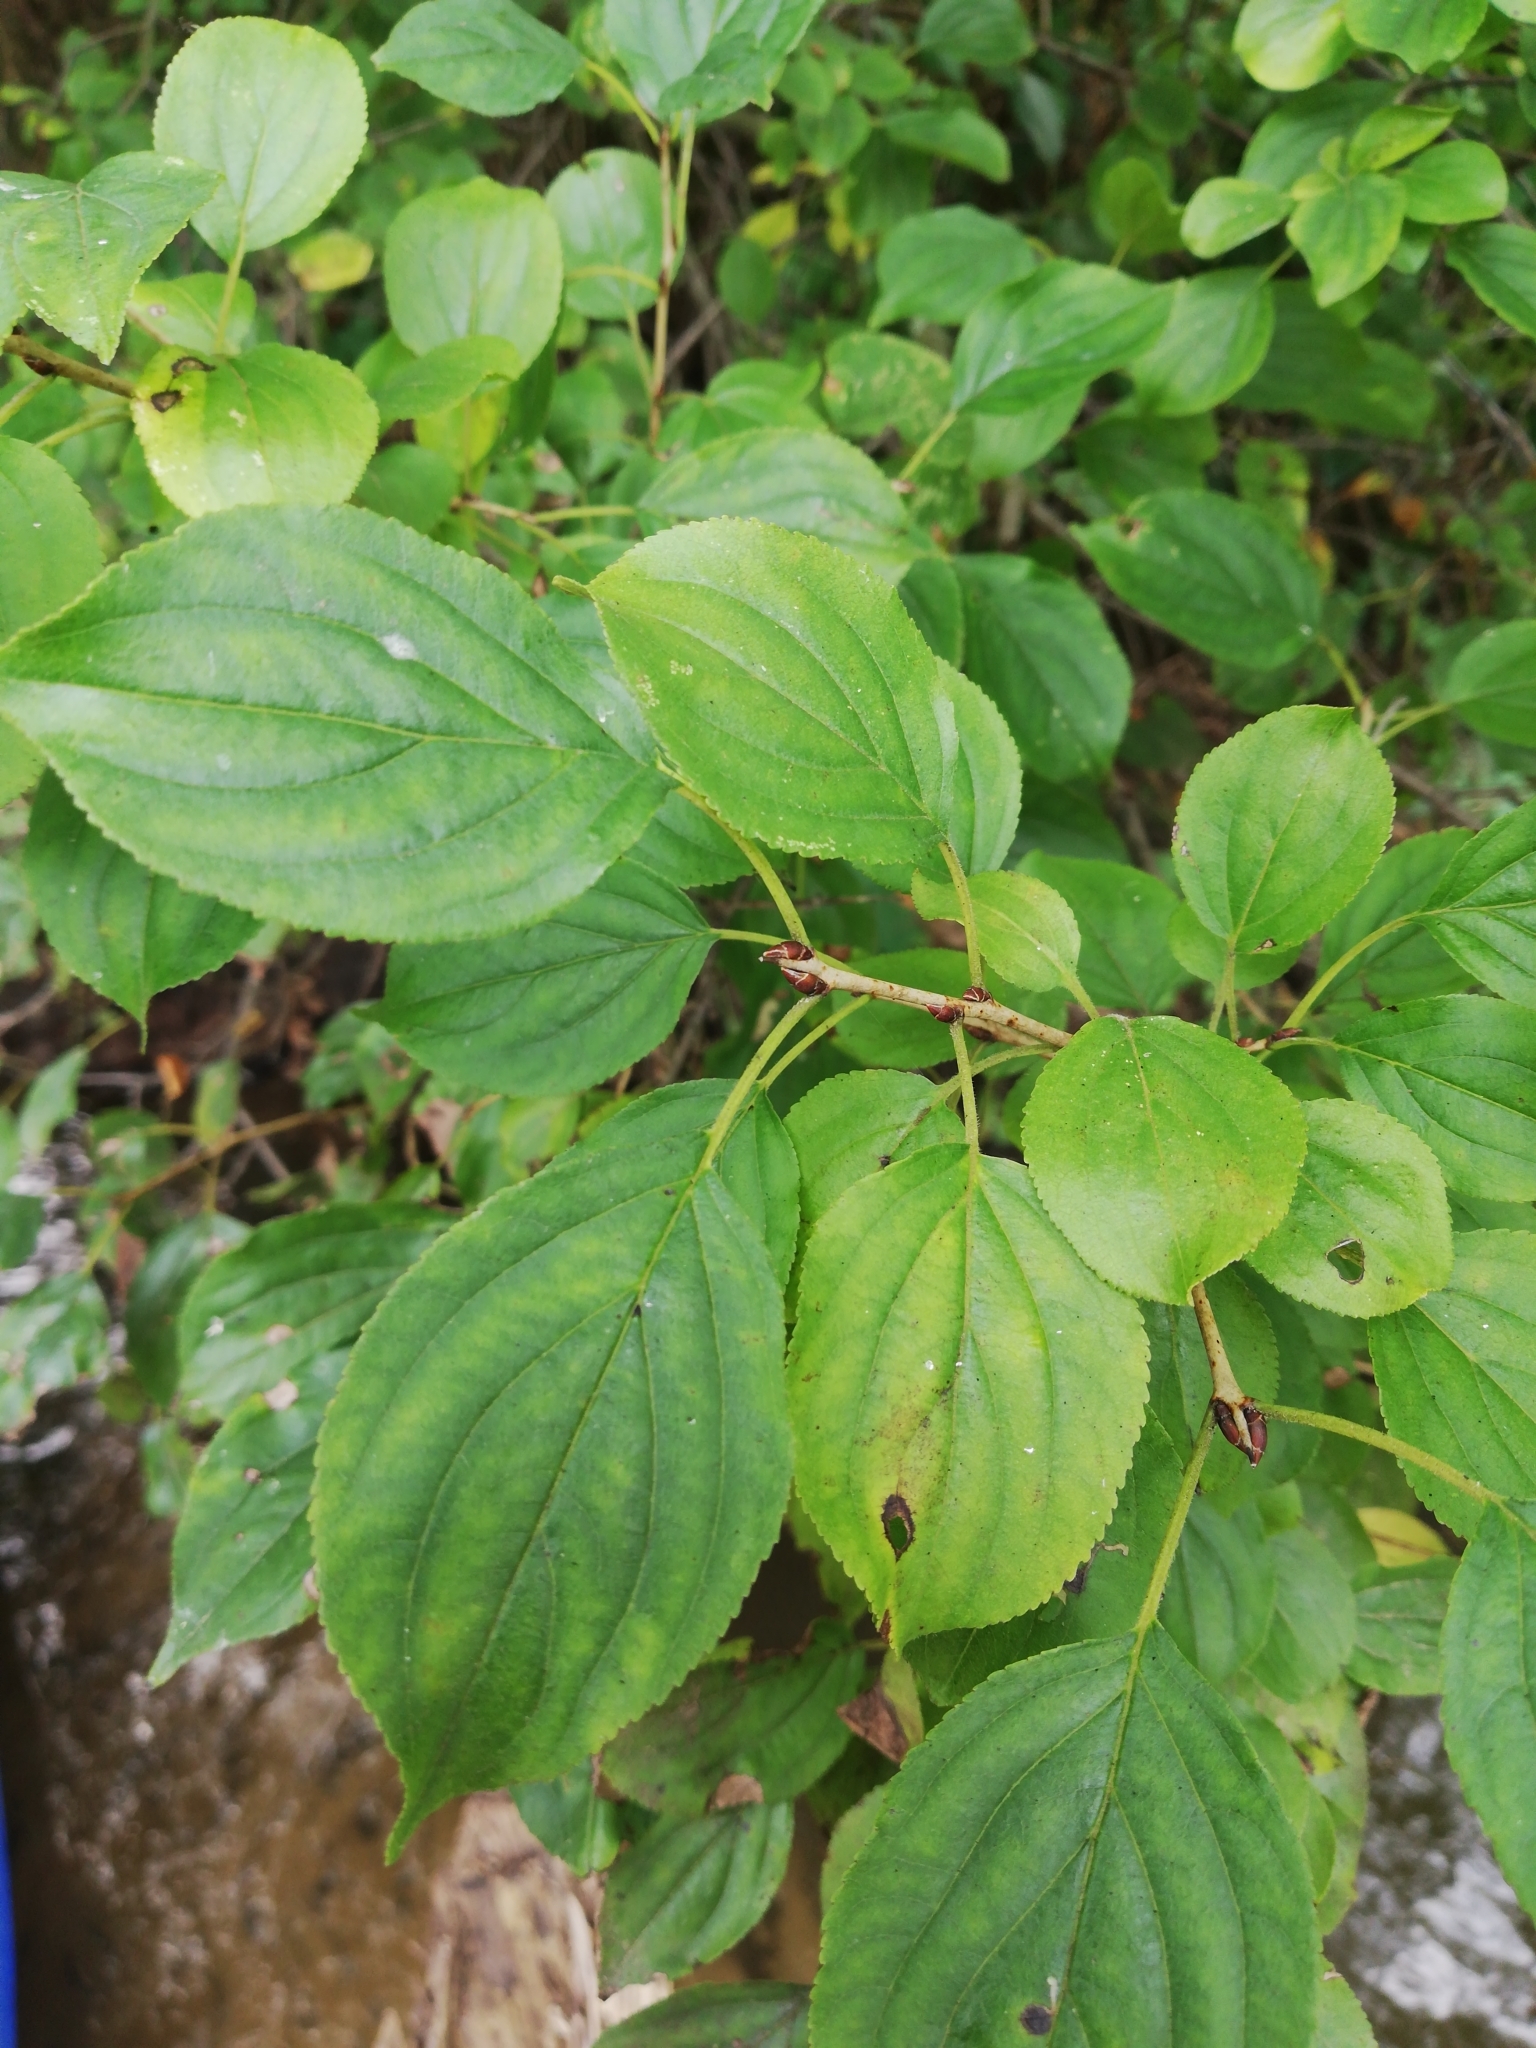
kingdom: Plantae
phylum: Tracheophyta
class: Magnoliopsida
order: Rosales
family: Rhamnaceae
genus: Rhamnus
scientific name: Rhamnus cathartica
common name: Common buckthorn
